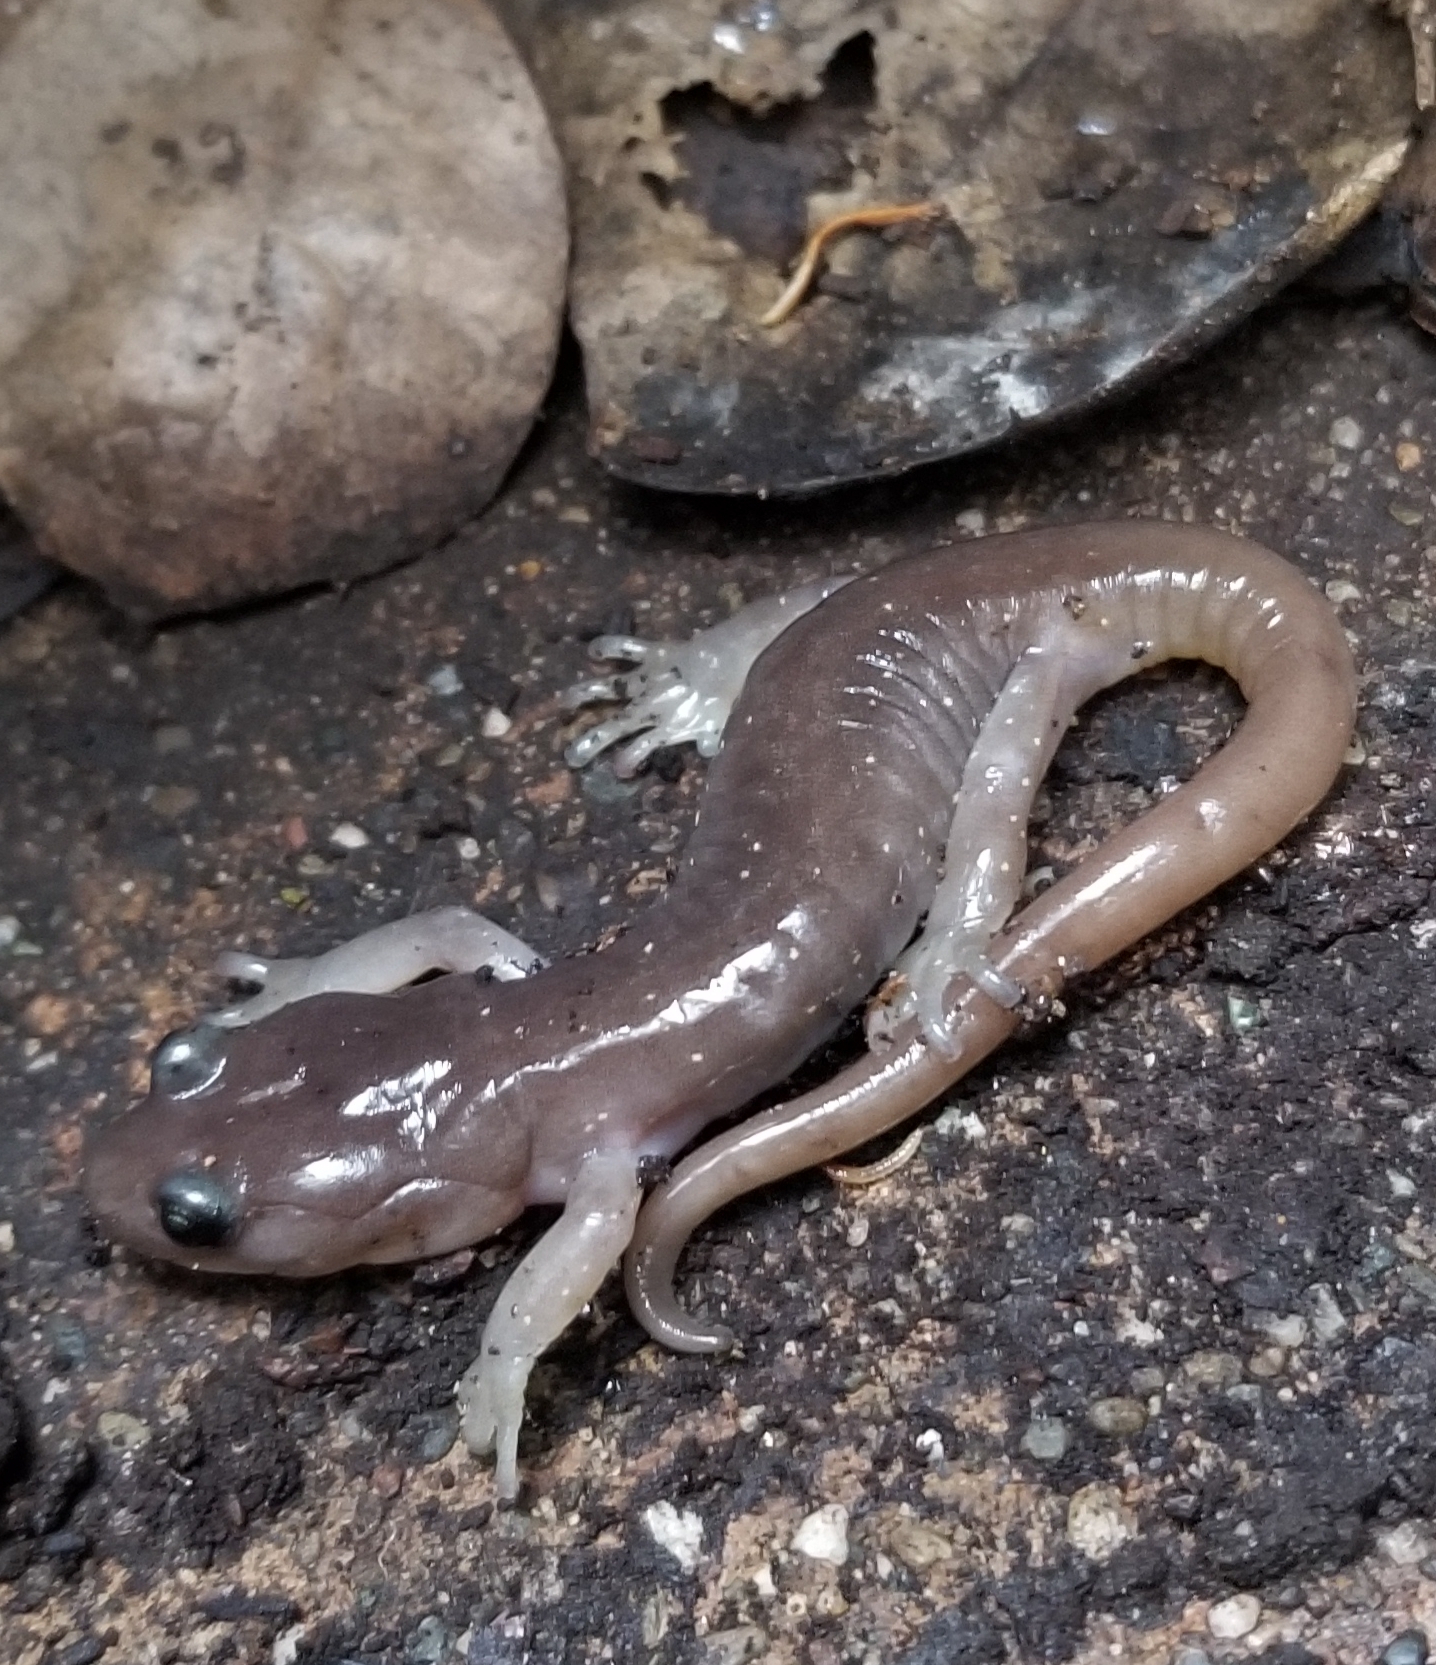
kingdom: Animalia
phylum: Chordata
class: Amphibia
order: Caudata
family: Plethodontidae
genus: Aneides
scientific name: Aneides lugubris
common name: Arboreal salamander
